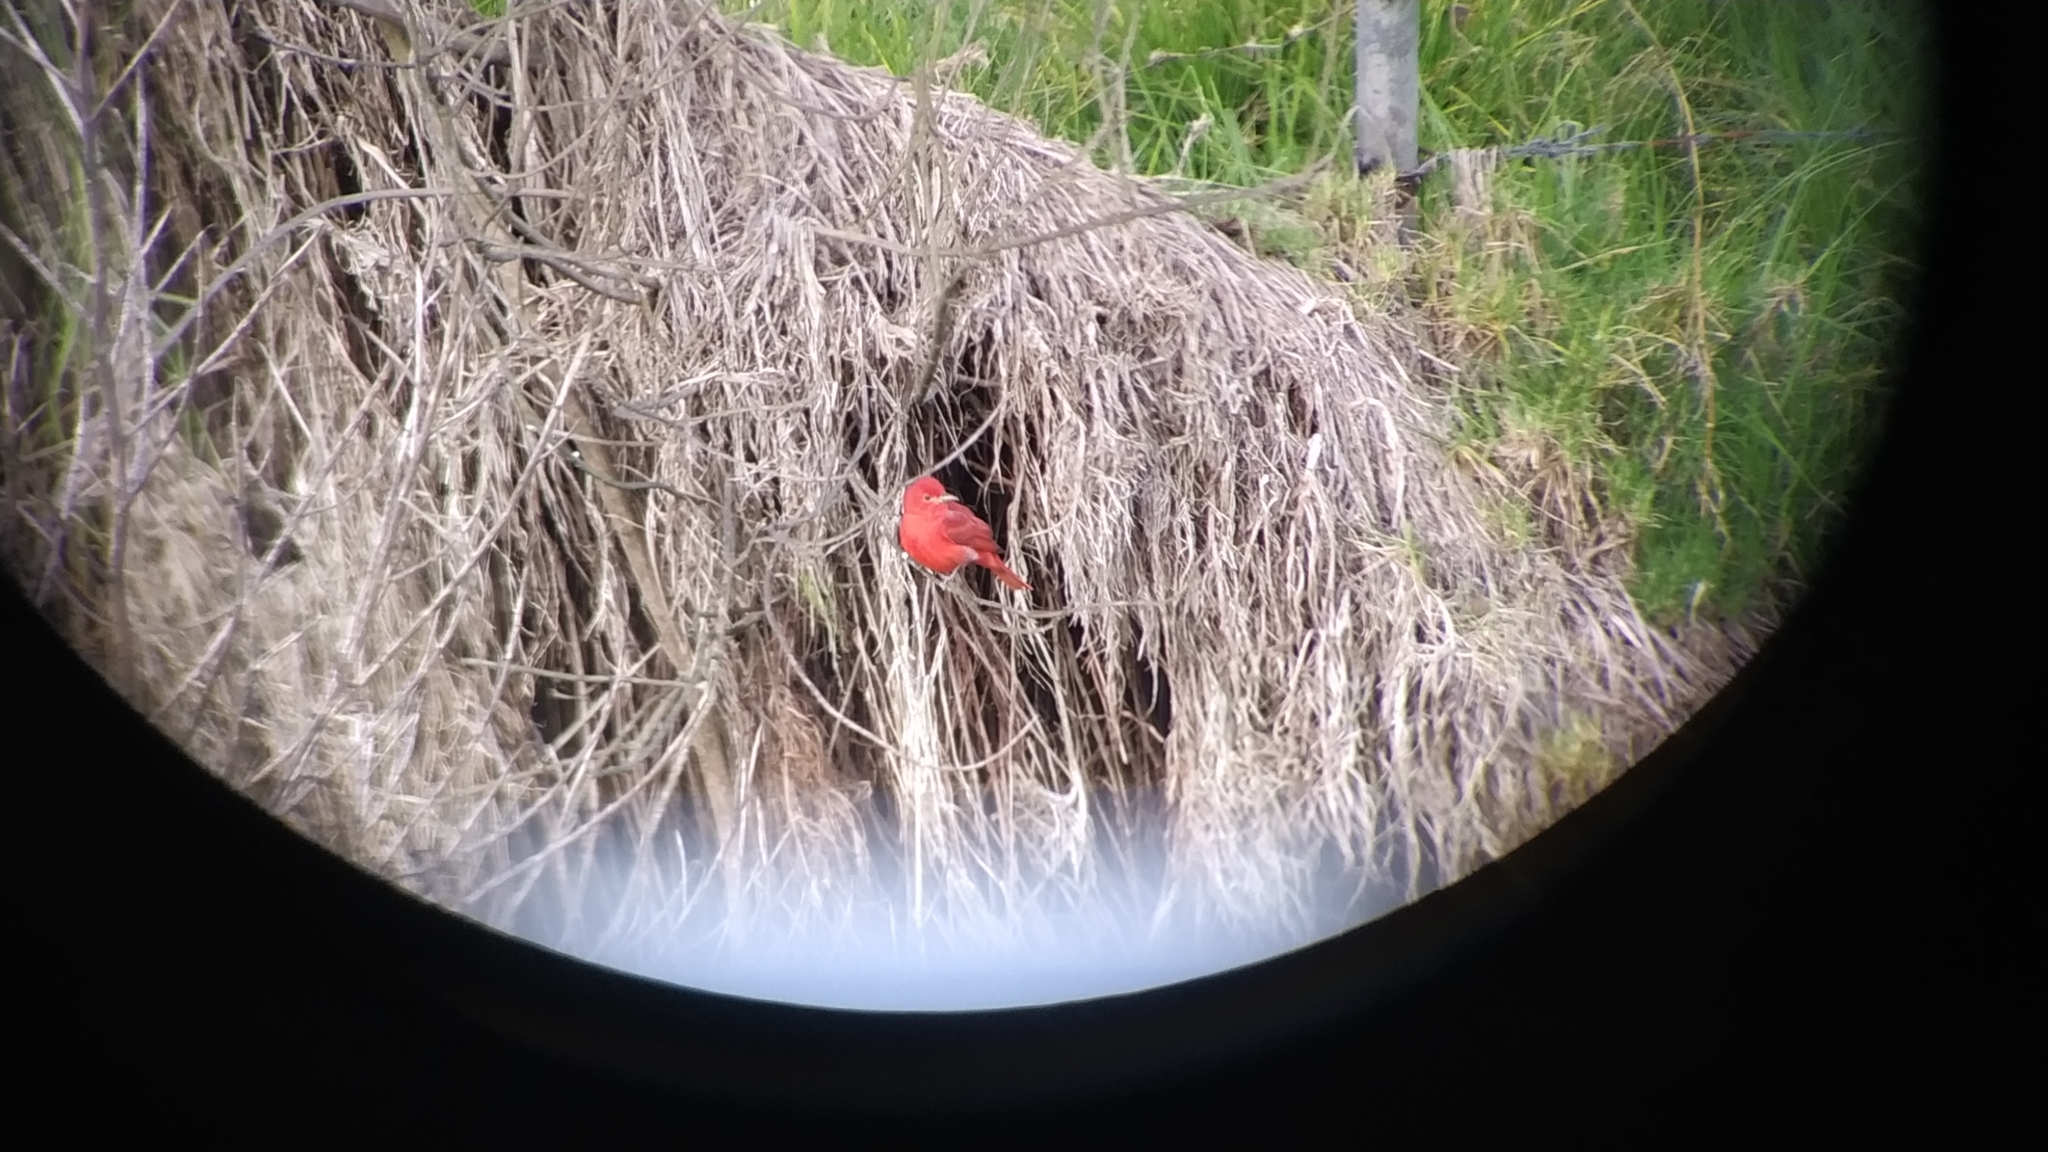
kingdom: Animalia
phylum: Chordata
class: Aves
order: Passeriformes
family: Cardinalidae
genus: Piranga
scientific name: Piranga rubra
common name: Summer tanager
